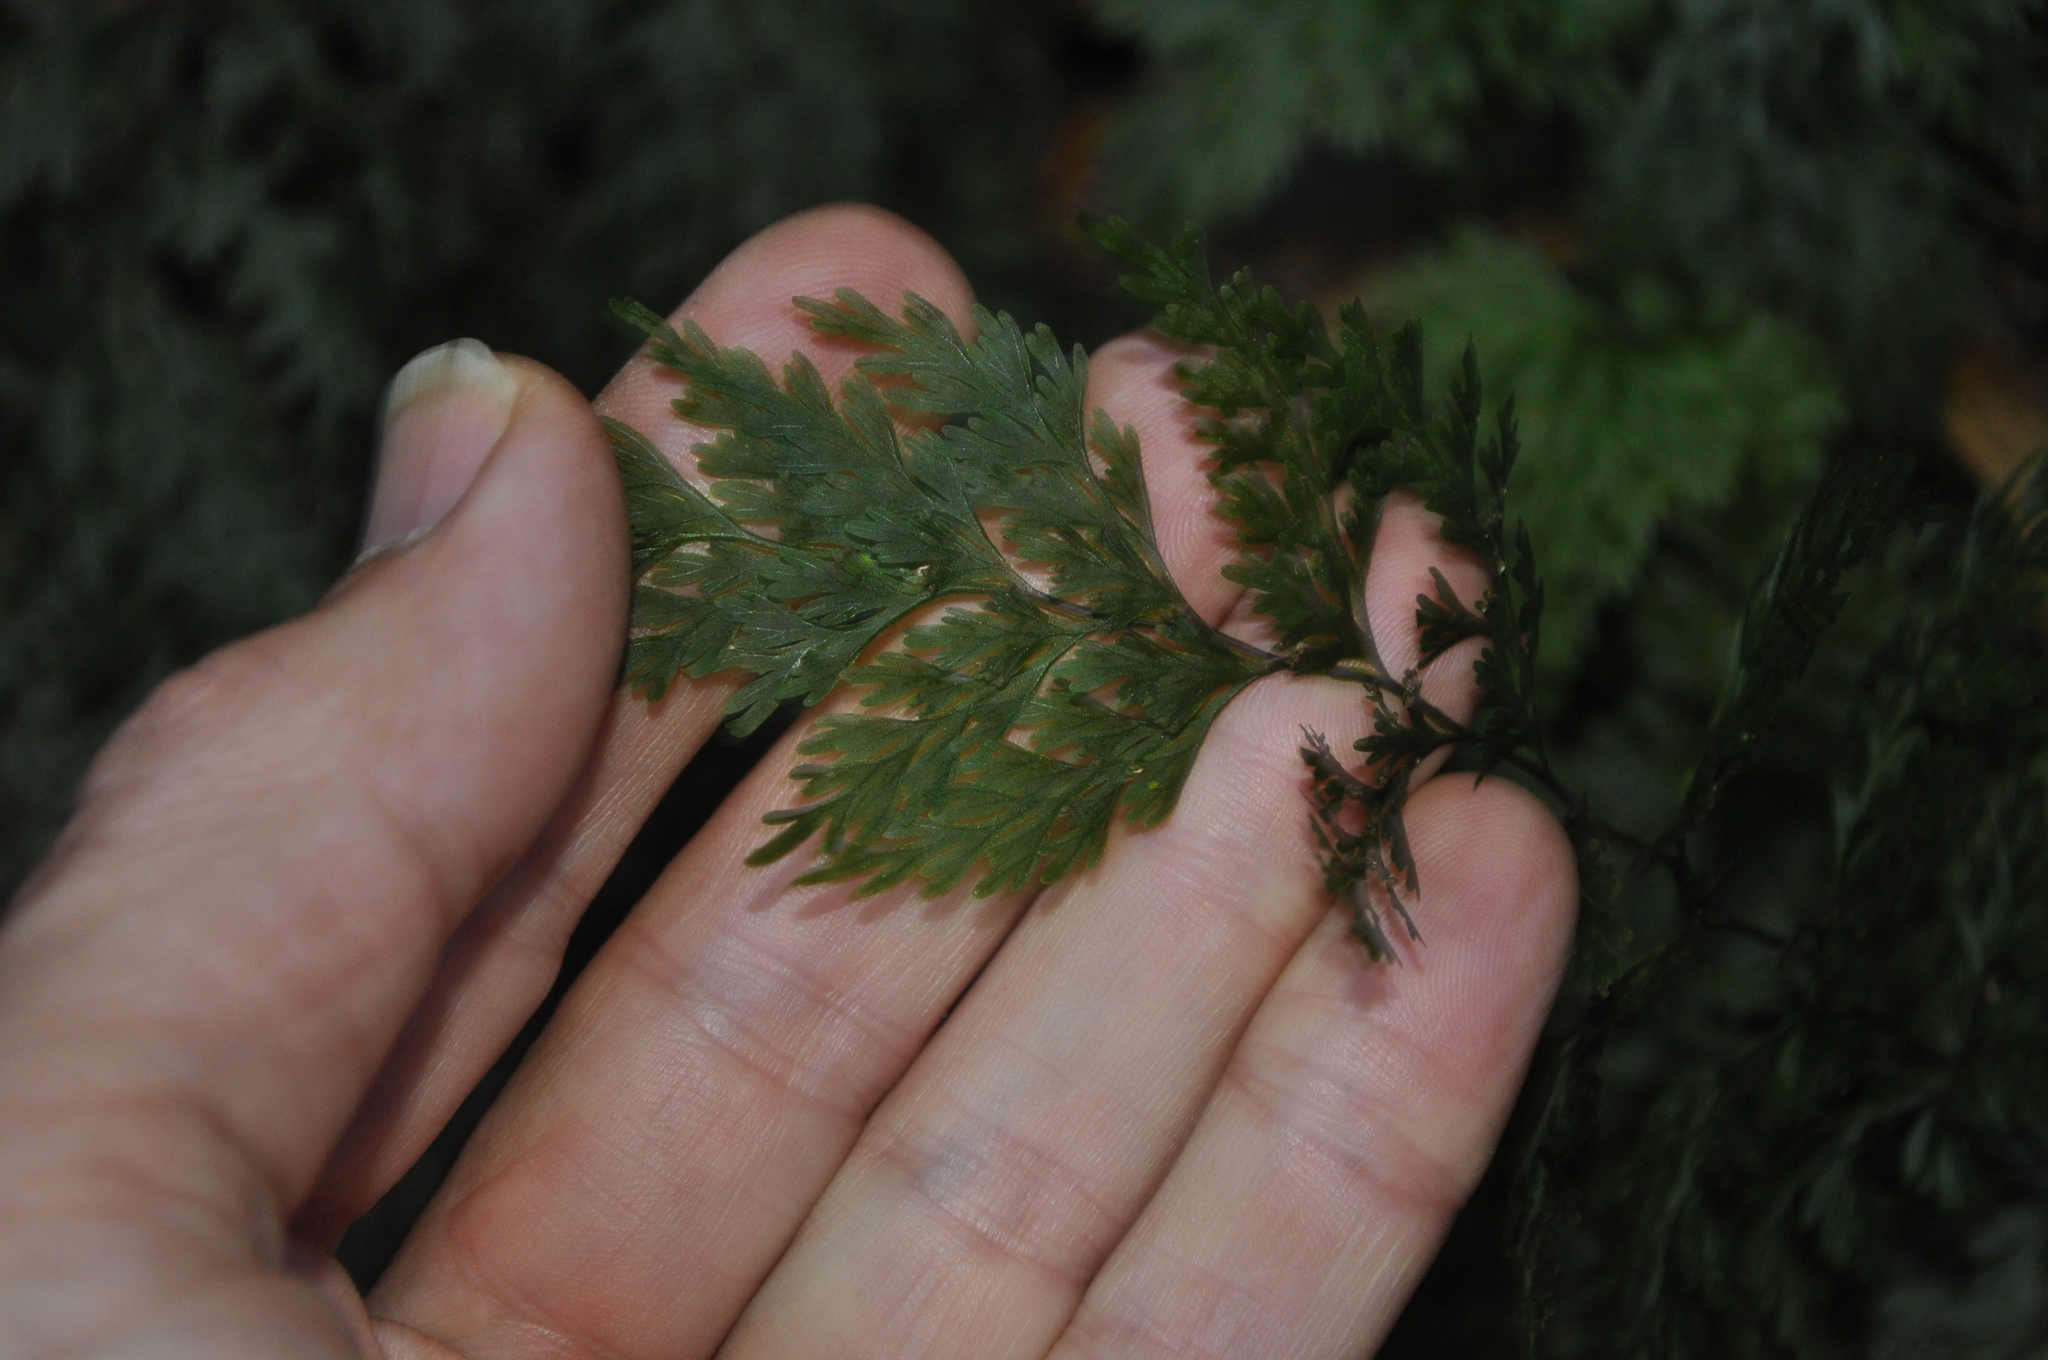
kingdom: Plantae
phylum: Tracheophyta
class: Polypodiopsida
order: Hymenophyllales
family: Hymenophyllaceae
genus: Hymenophyllum
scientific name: Hymenophyllum demissum
